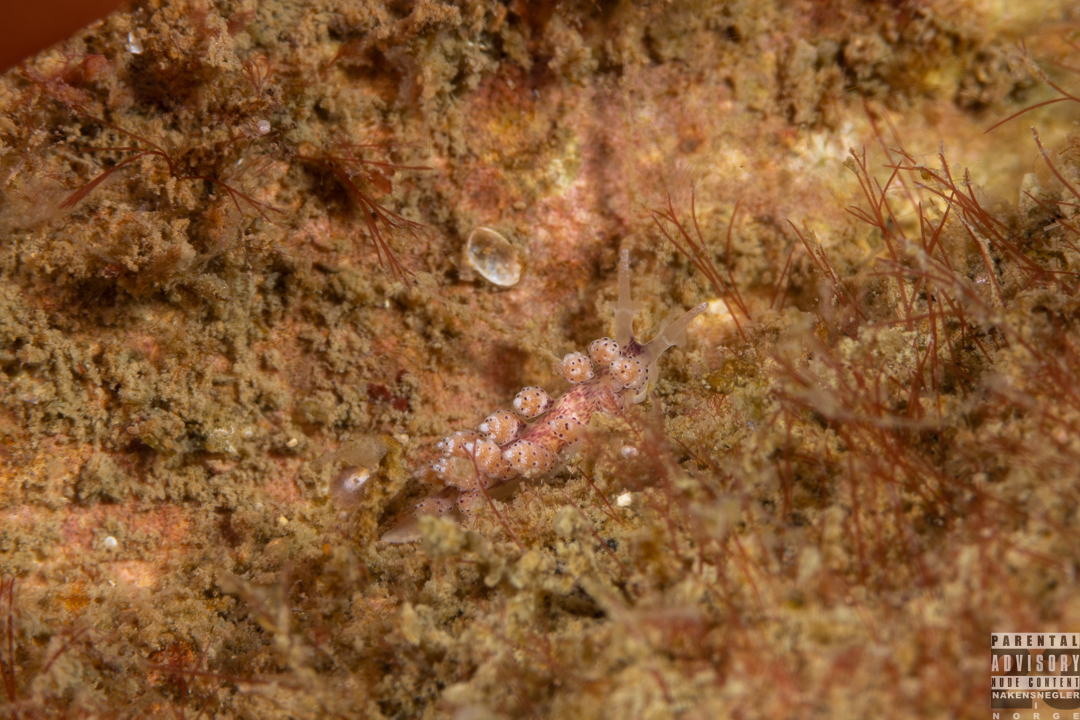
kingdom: Animalia
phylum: Mollusca
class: Gastropoda
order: Nudibranchia
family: Dotidae
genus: Doto
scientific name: Doto coronata
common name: Coronate doto
